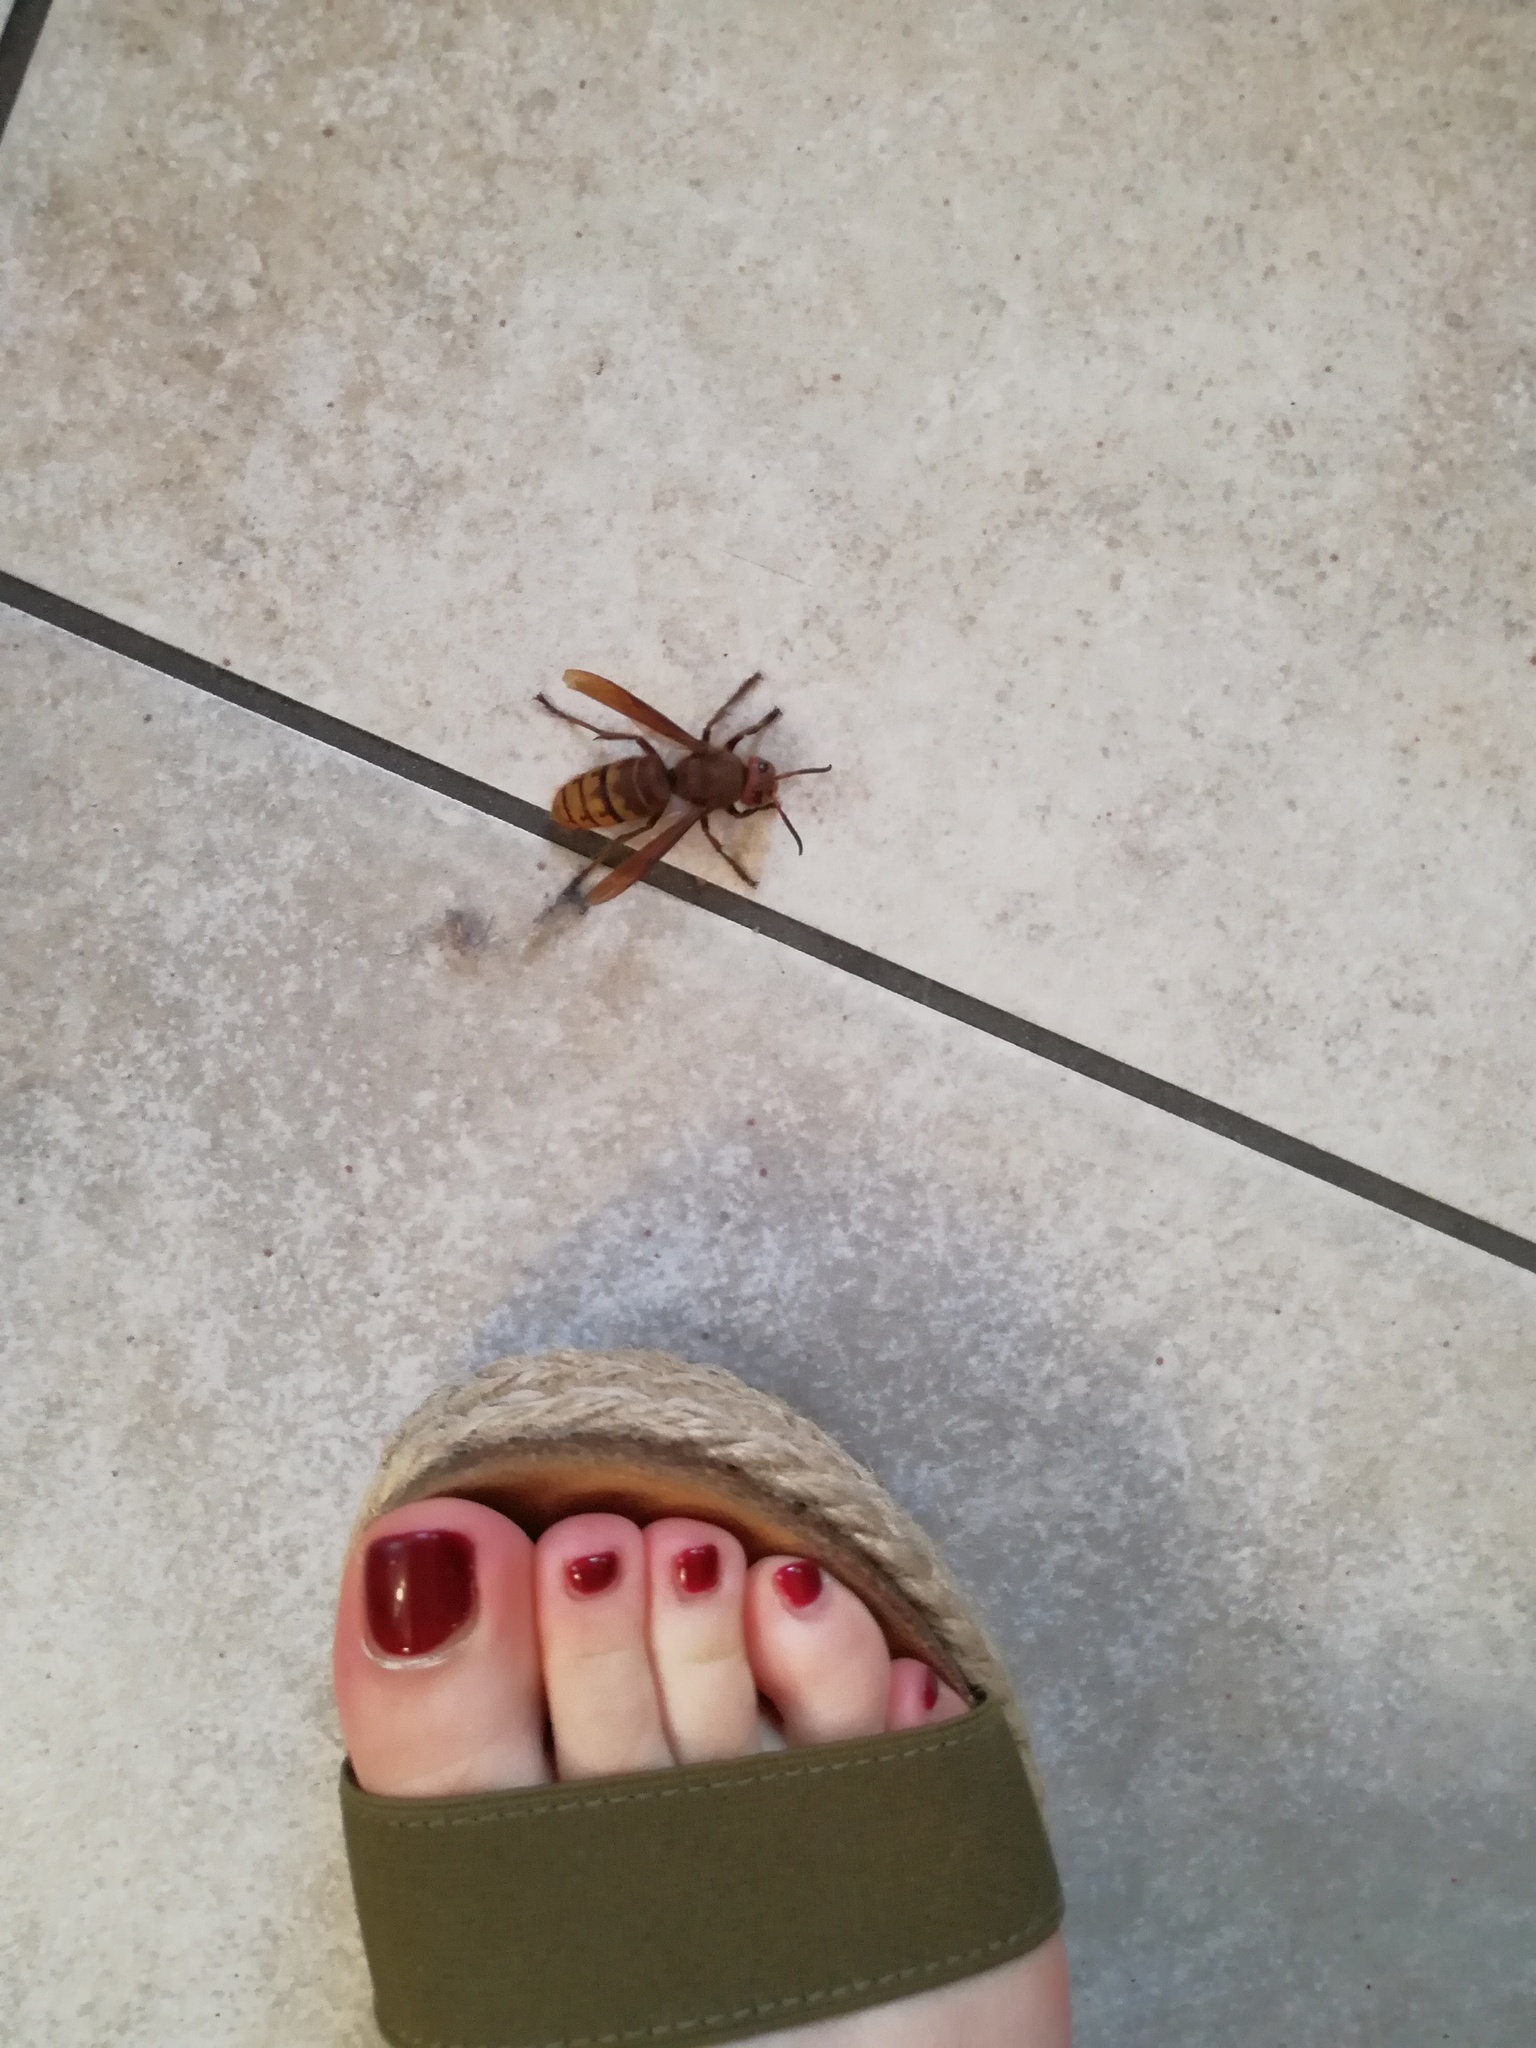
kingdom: Animalia
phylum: Arthropoda
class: Insecta
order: Hymenoptera
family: Vespidae
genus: Vespa
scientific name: Vespa crabro
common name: Hornet
